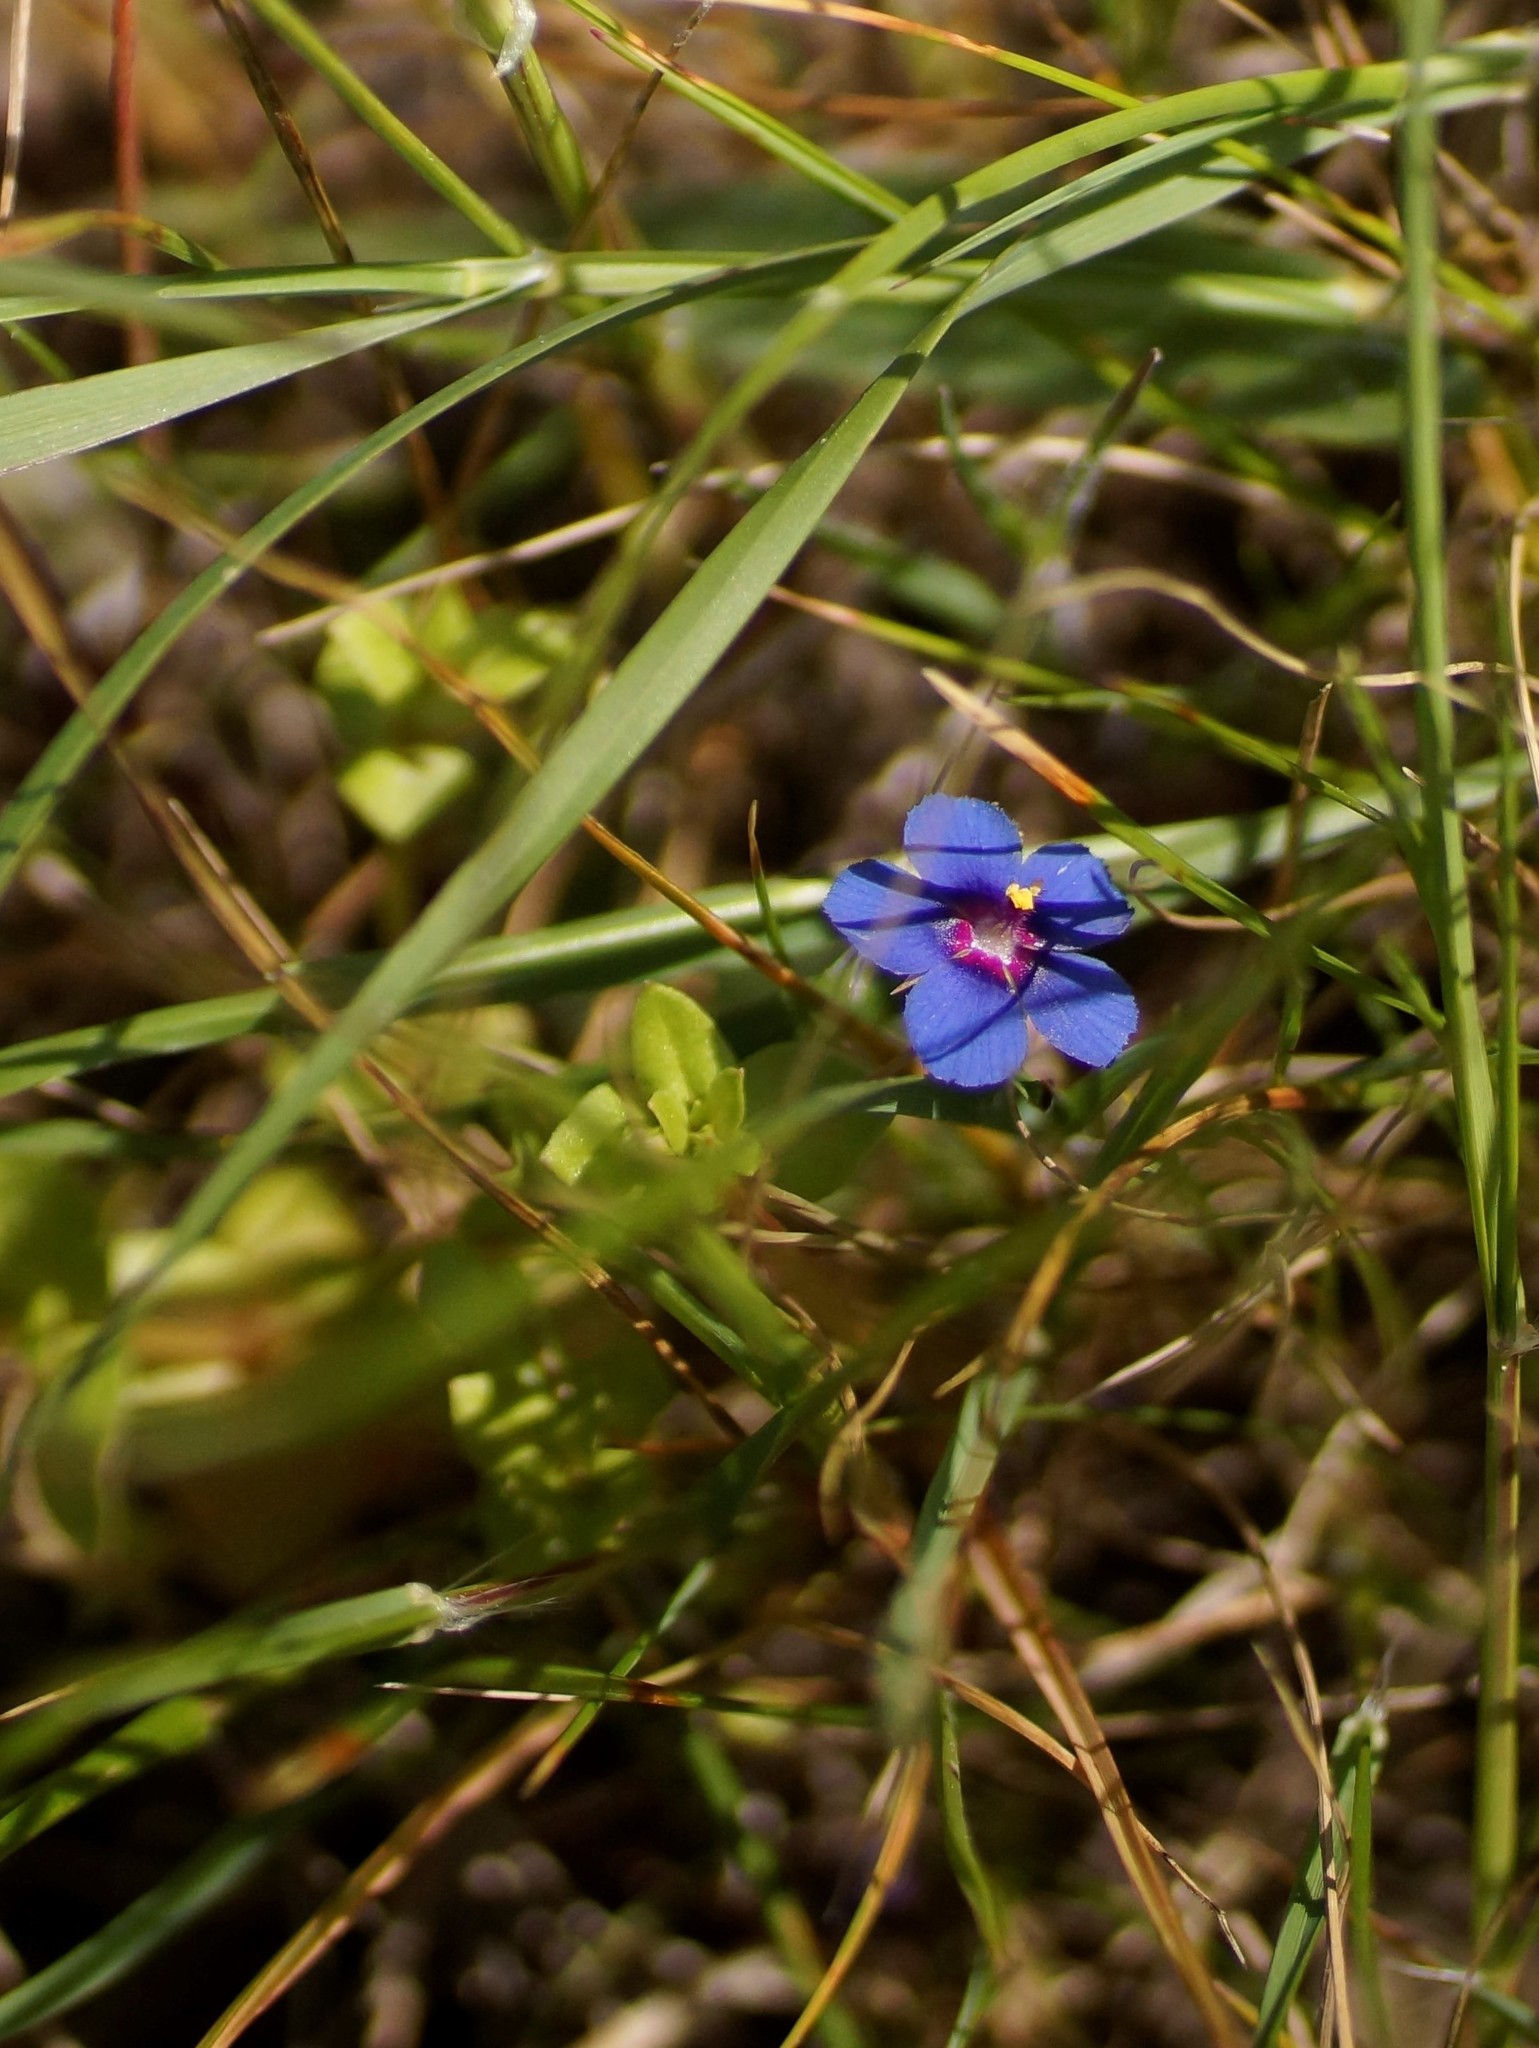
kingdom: Plantae
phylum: Tracheophyta
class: Magnoliopsida
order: Ericales
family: Primulaceae
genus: Lysimachia
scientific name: Lysimachia loeflingii
